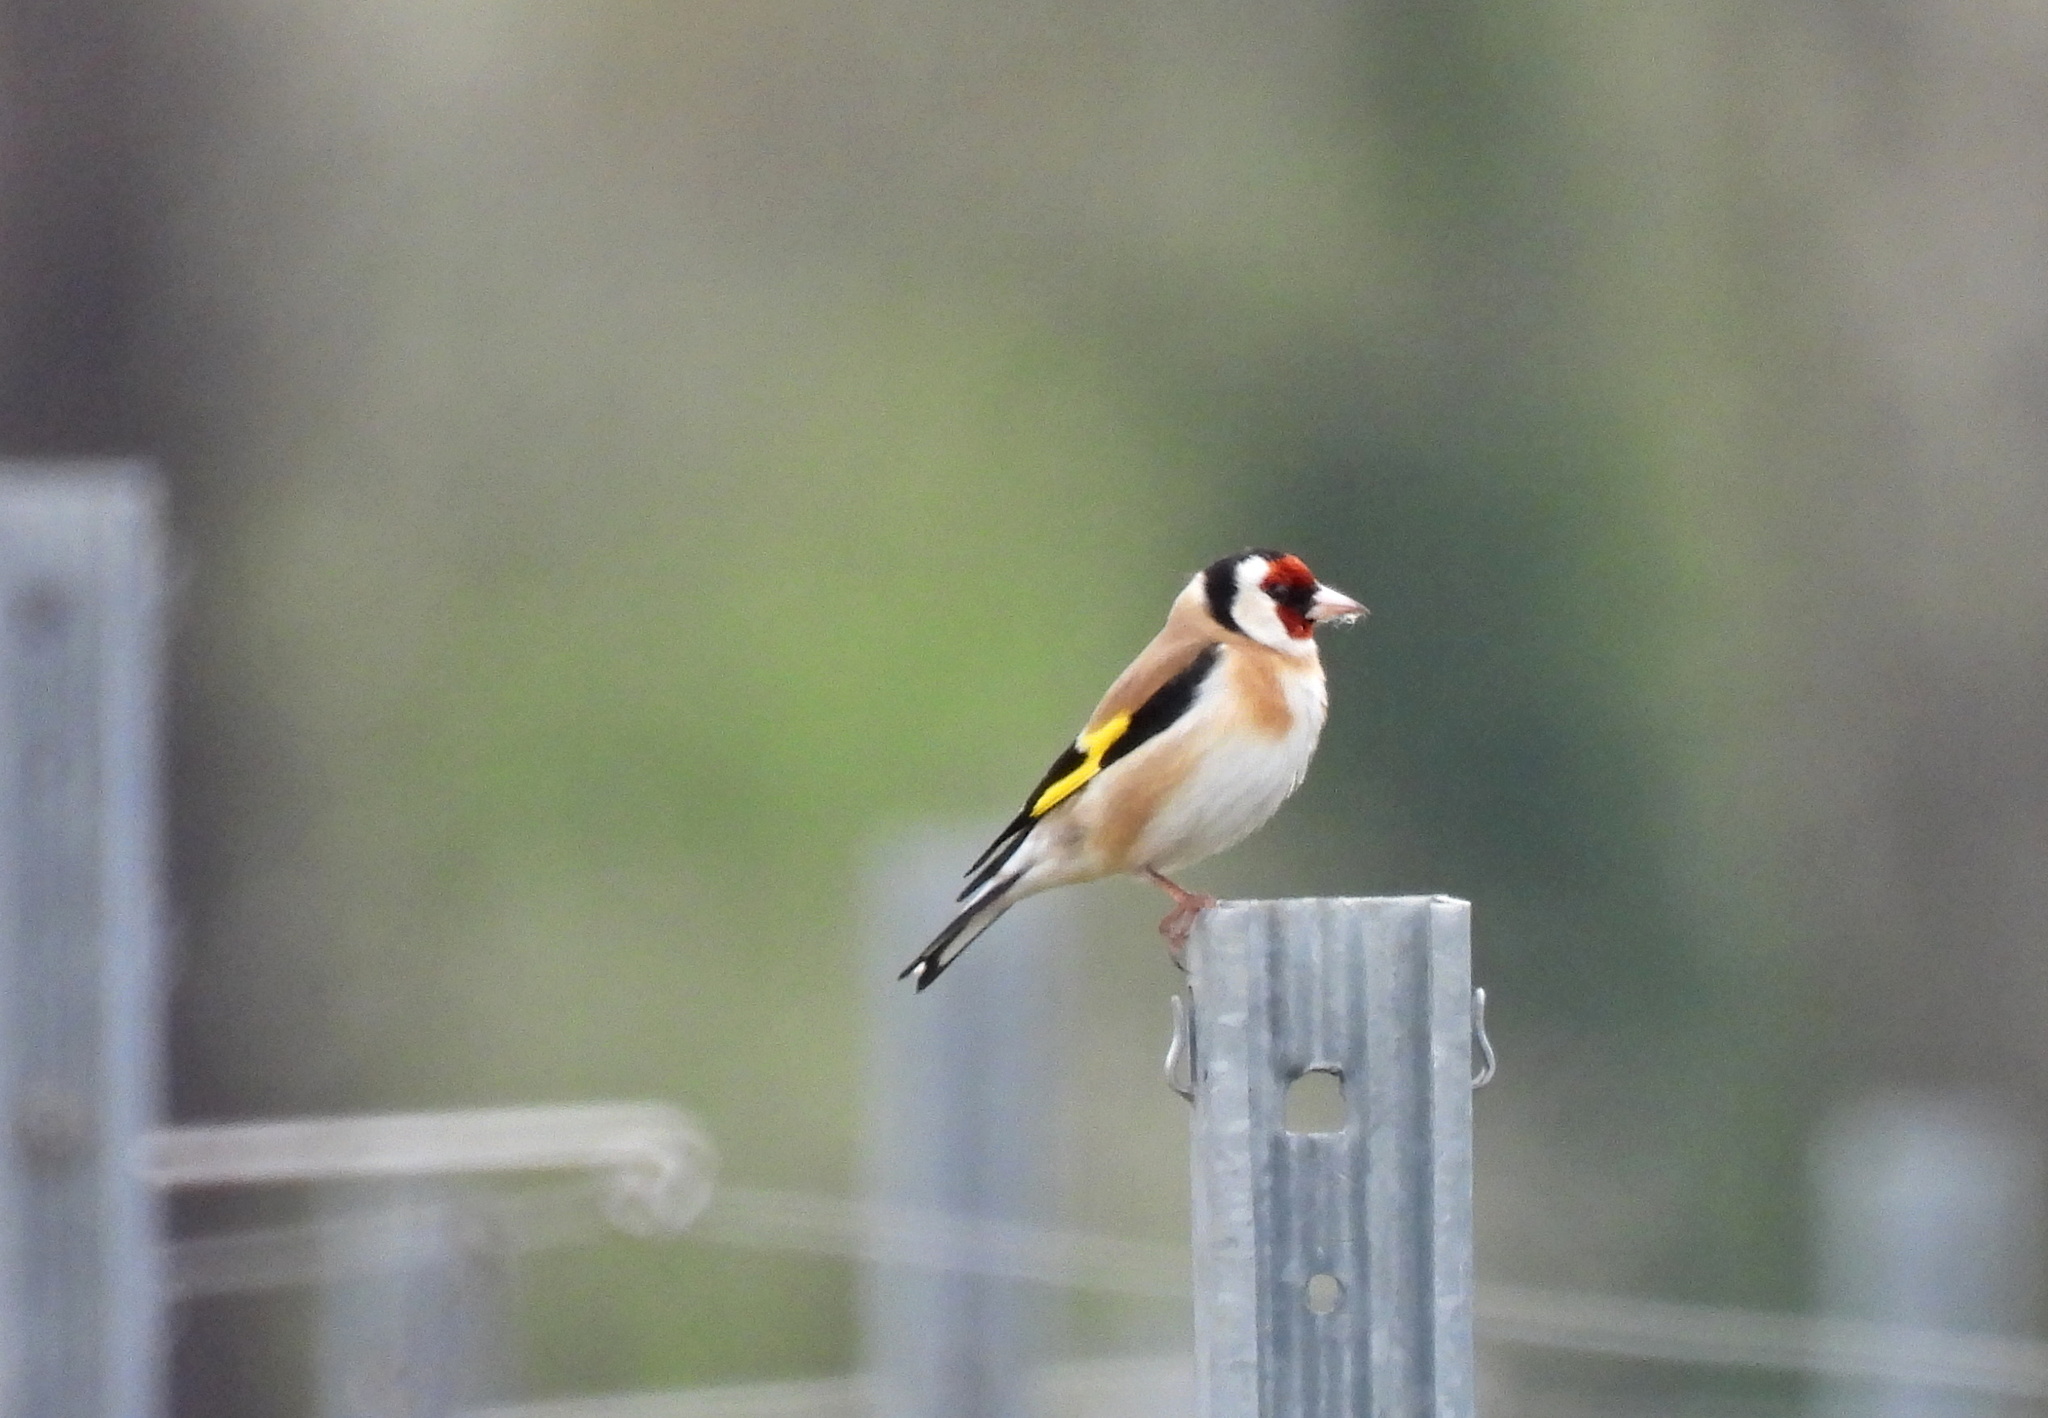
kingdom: Animalia
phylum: Chordata
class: Aves
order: Passeriformes
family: Fringillidae
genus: Carduelis
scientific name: Carduelis carduelis
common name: European goldfinch
